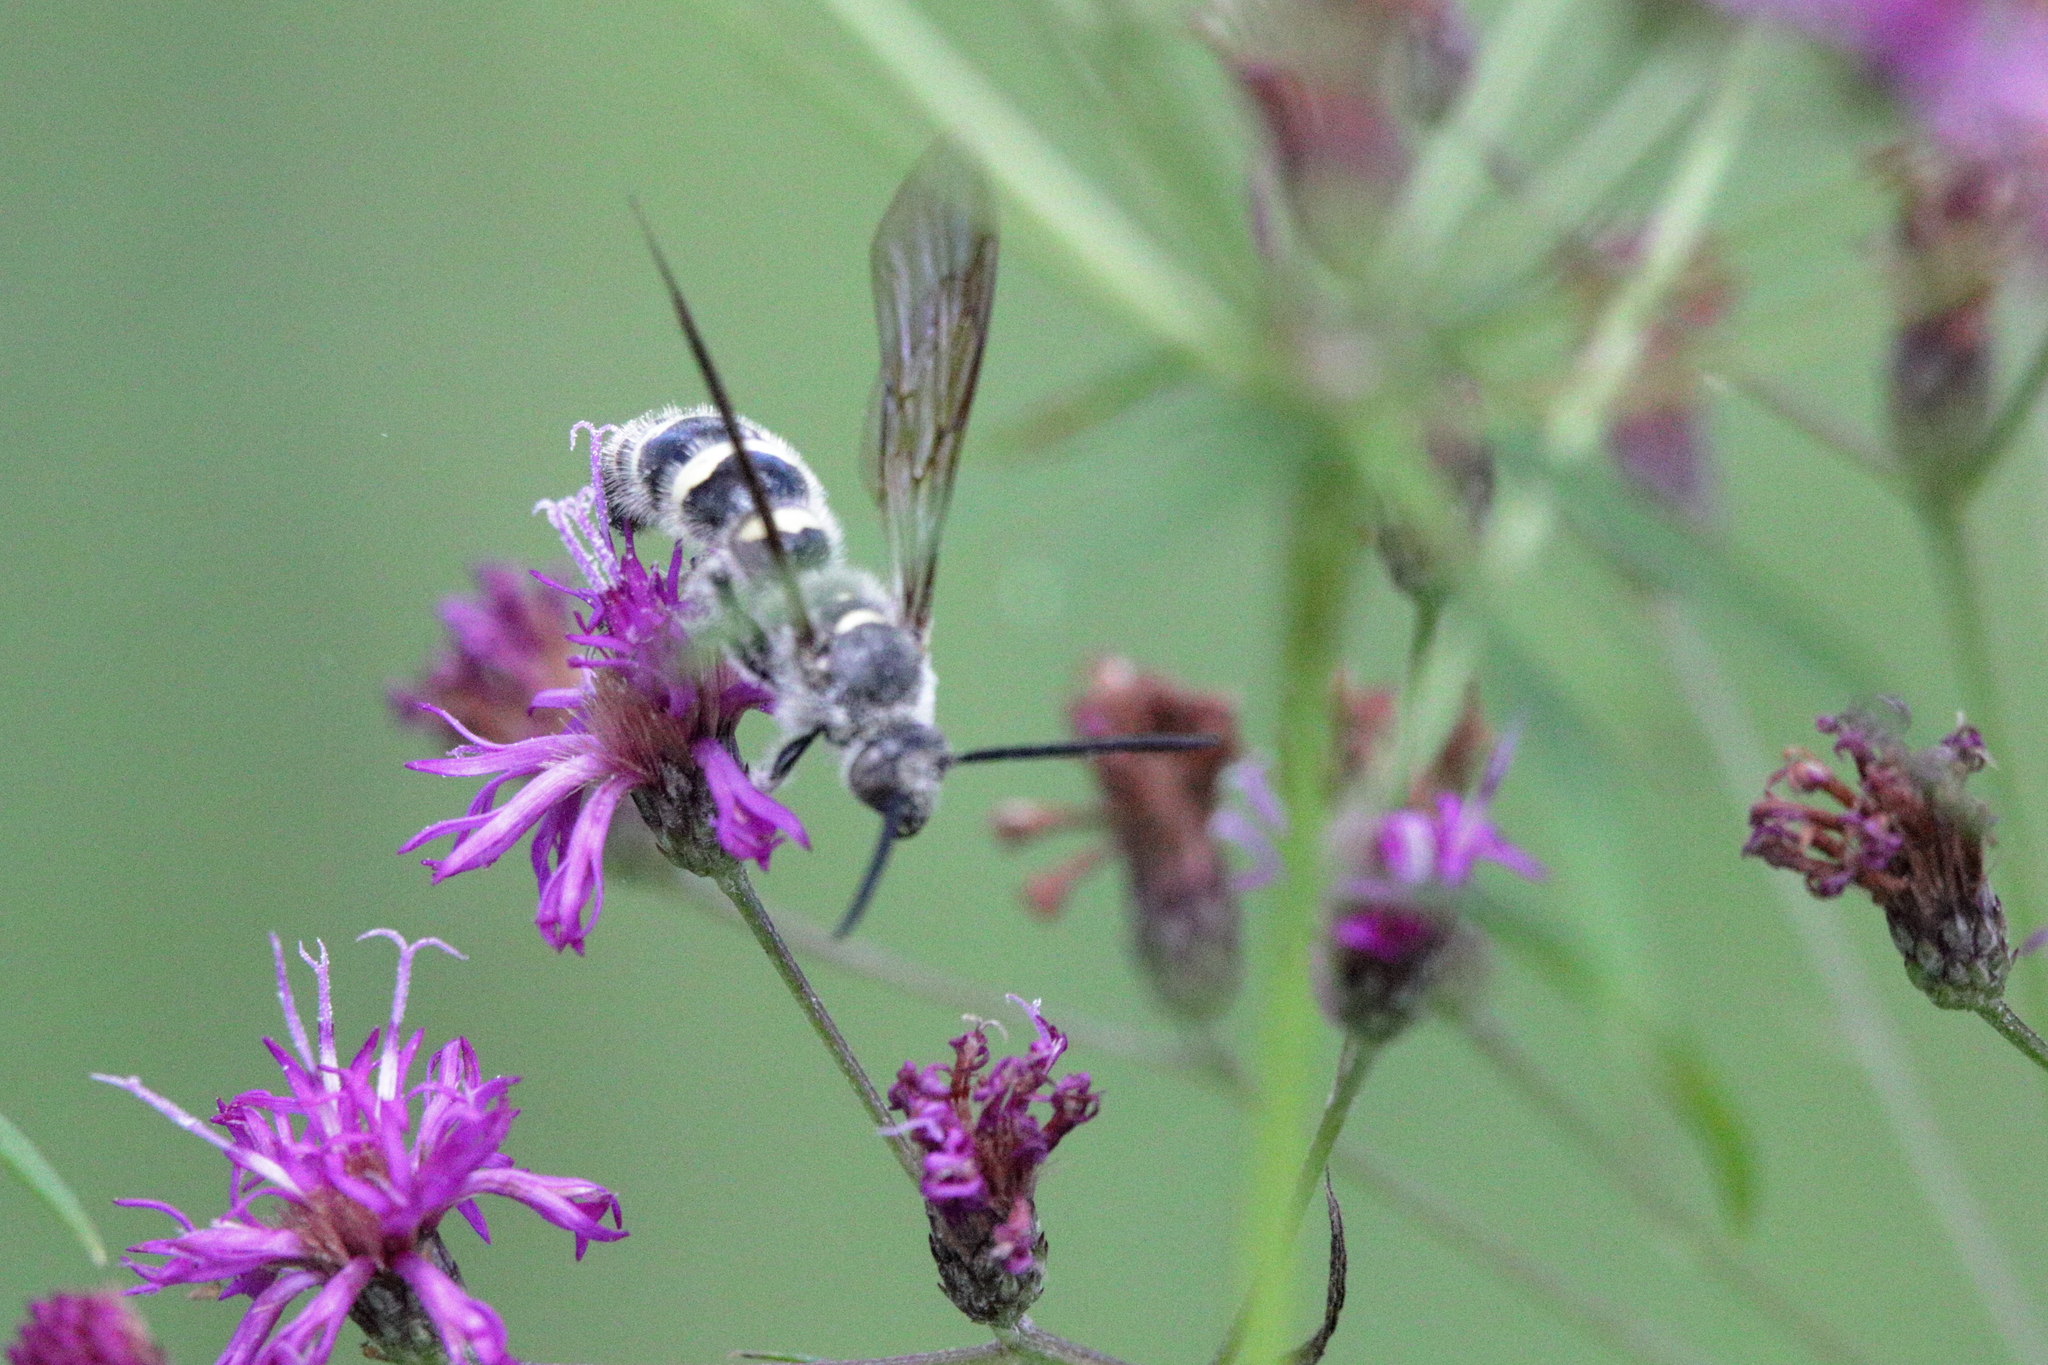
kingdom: Animalia
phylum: Arthropoda
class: Insecta
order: Hymenoptera
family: Scoliidae
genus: Dielis
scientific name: Dielis
